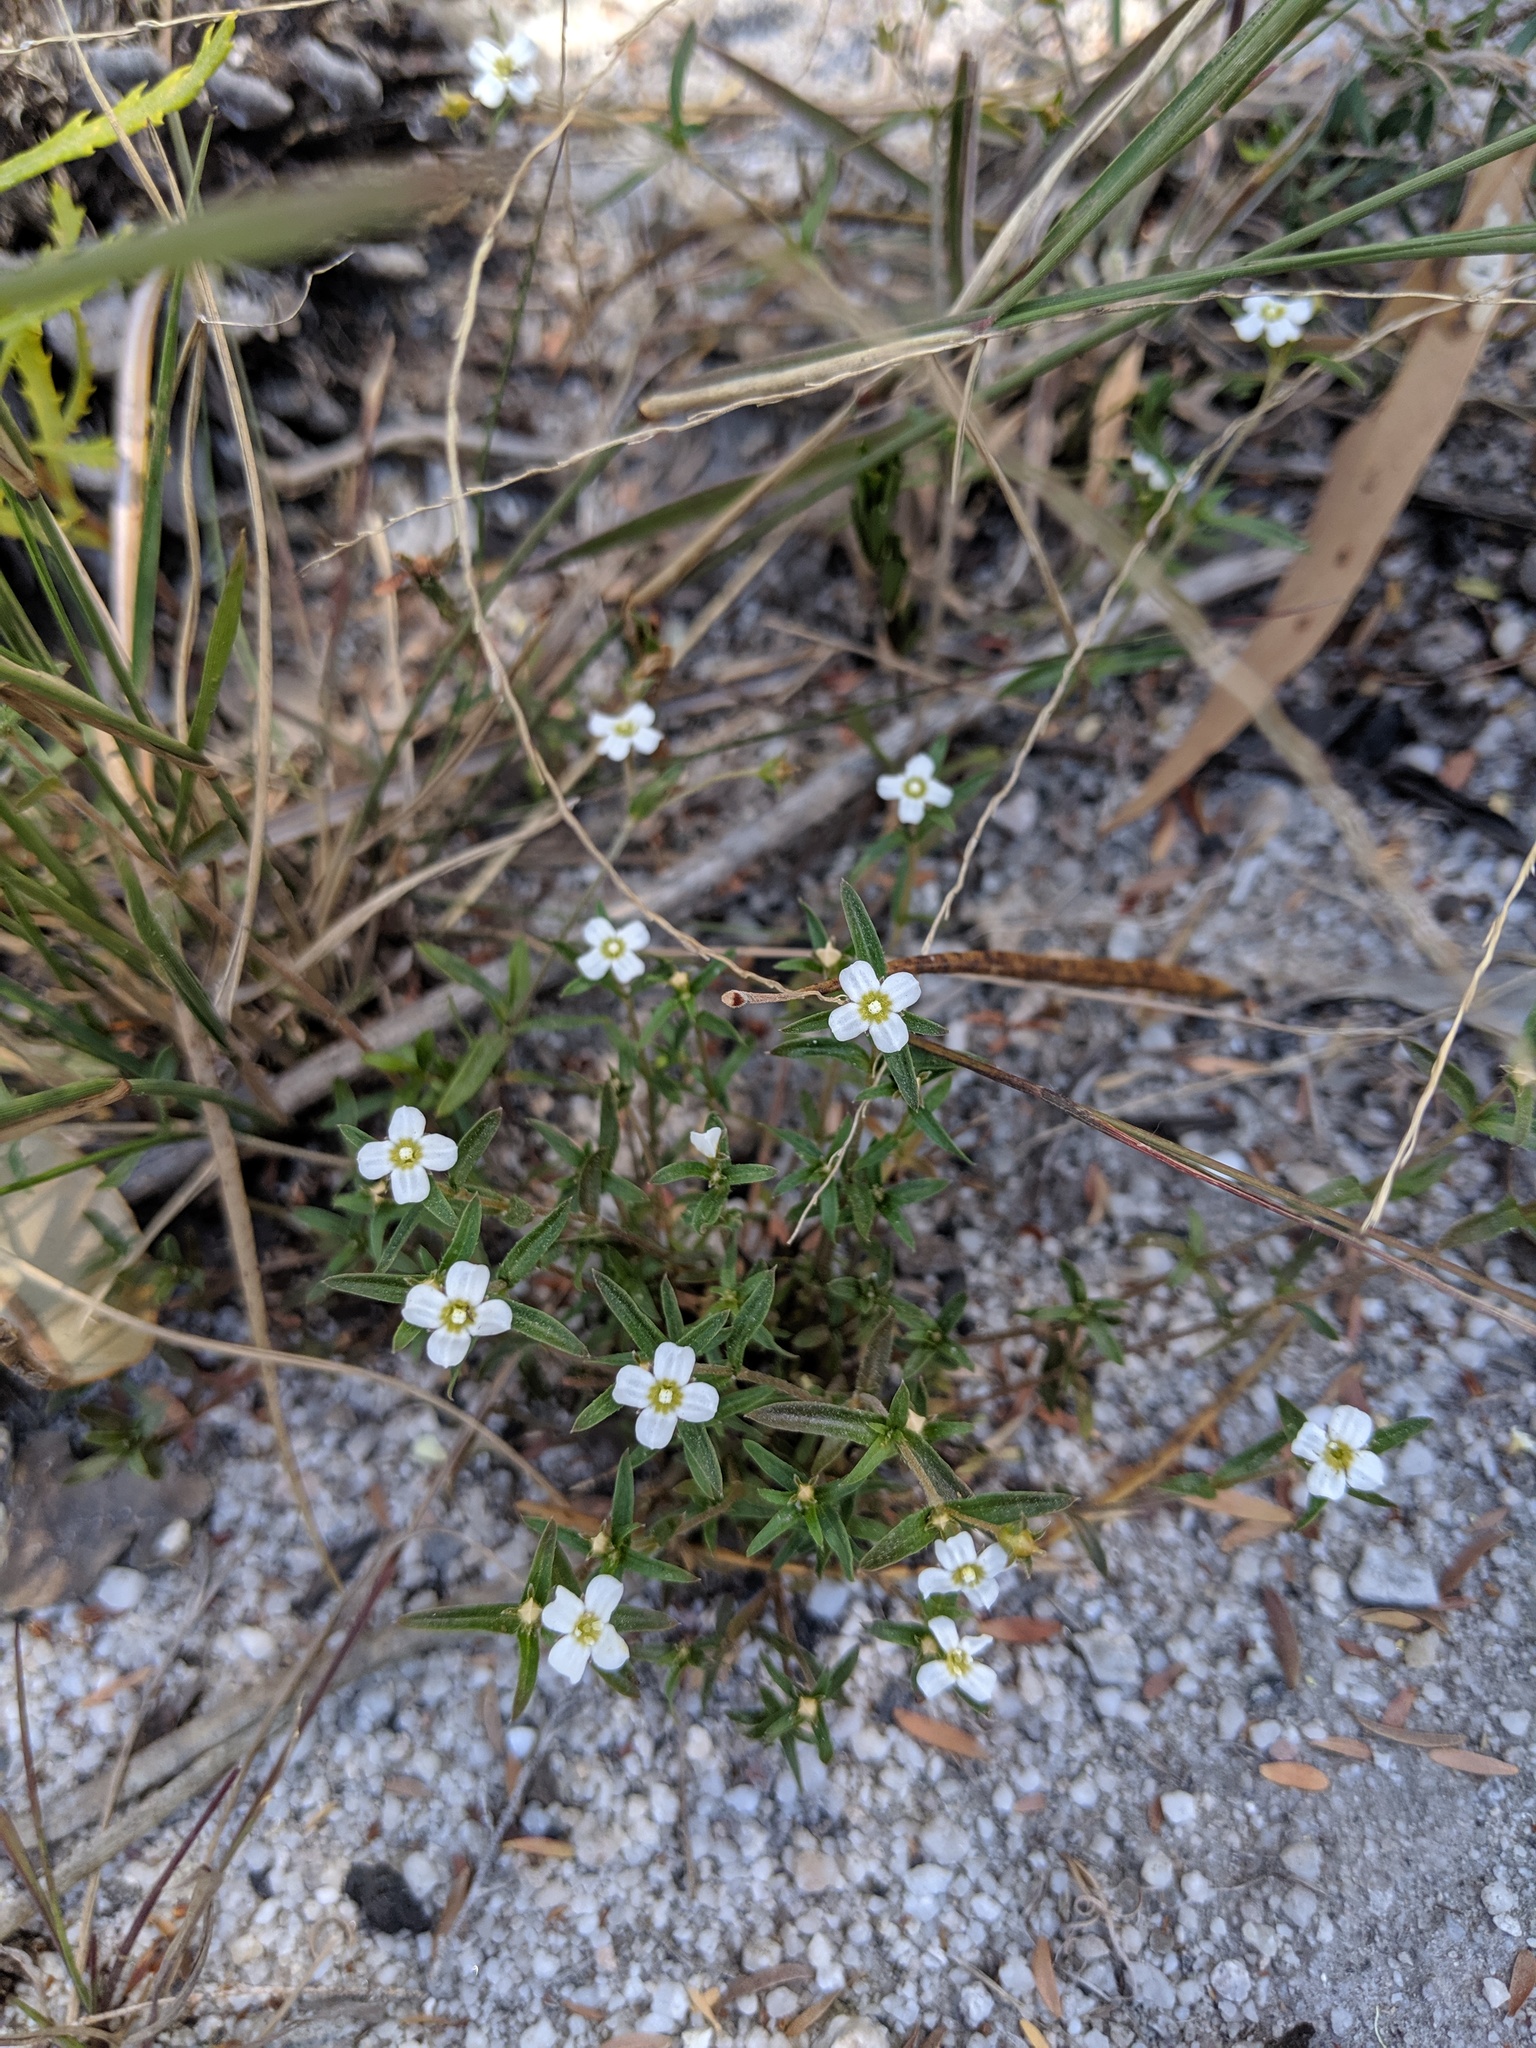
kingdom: Plantae
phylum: Tracheophyta
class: Magnoliopsida
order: Gentianales
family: Loganiaceae
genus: Mitrasacme
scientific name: Mitrasacme paludosa
